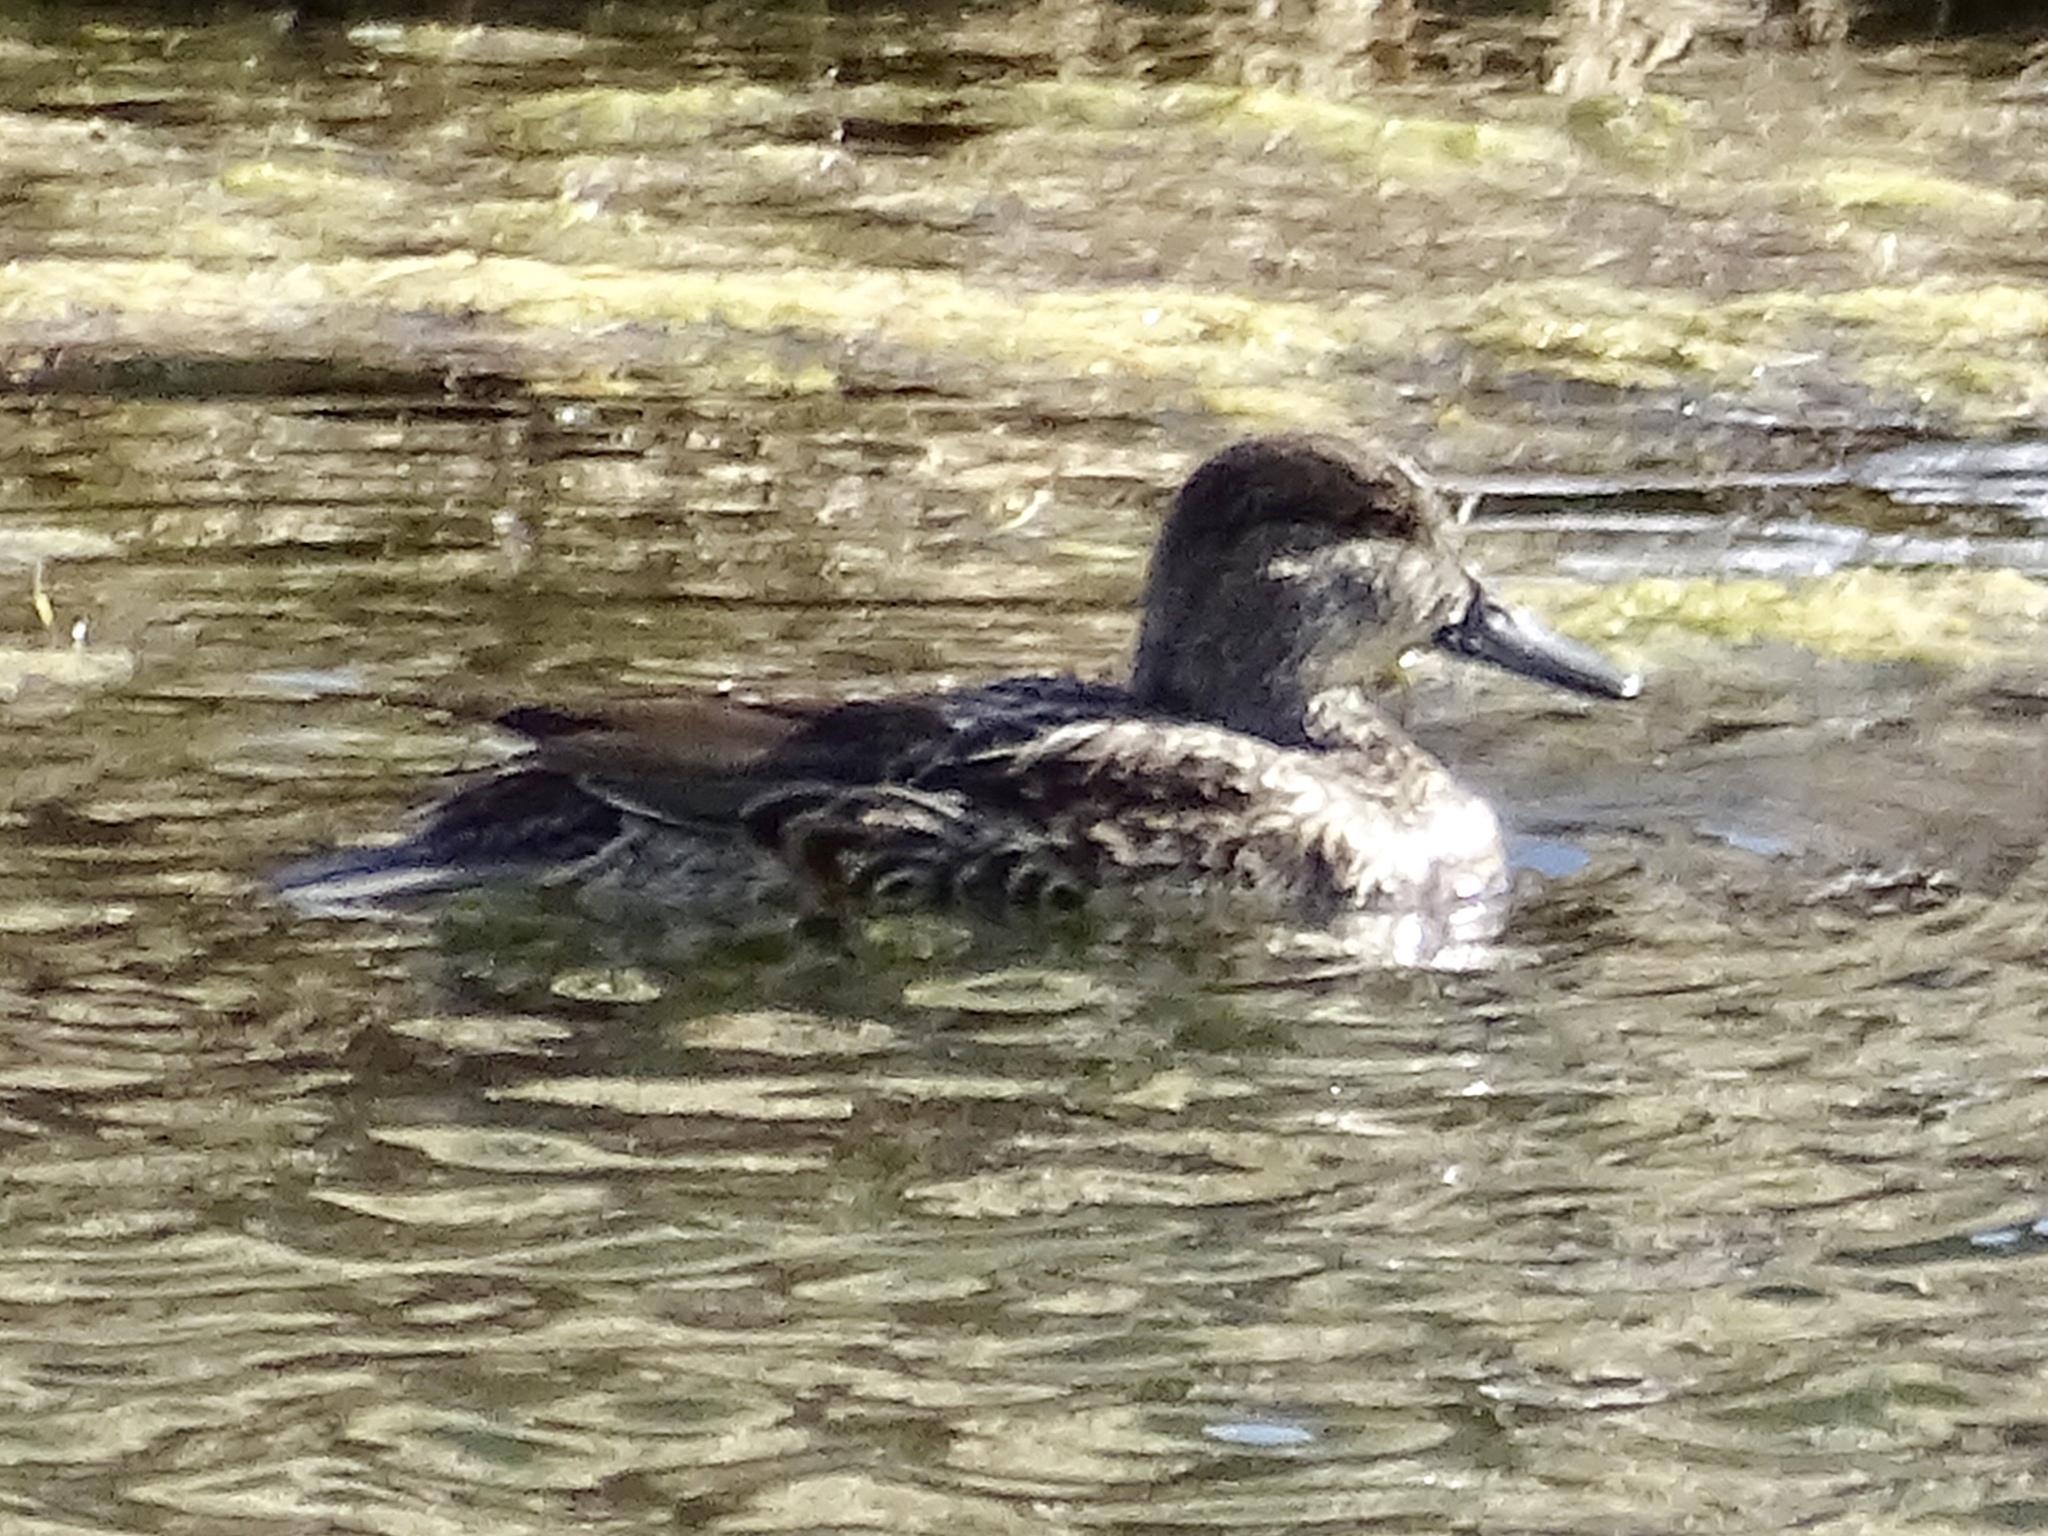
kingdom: Animalia
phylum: Chordata
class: Aves
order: Anseriformes
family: Anatidae
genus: Anas
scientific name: Anas crecca
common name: Eurasian teal
